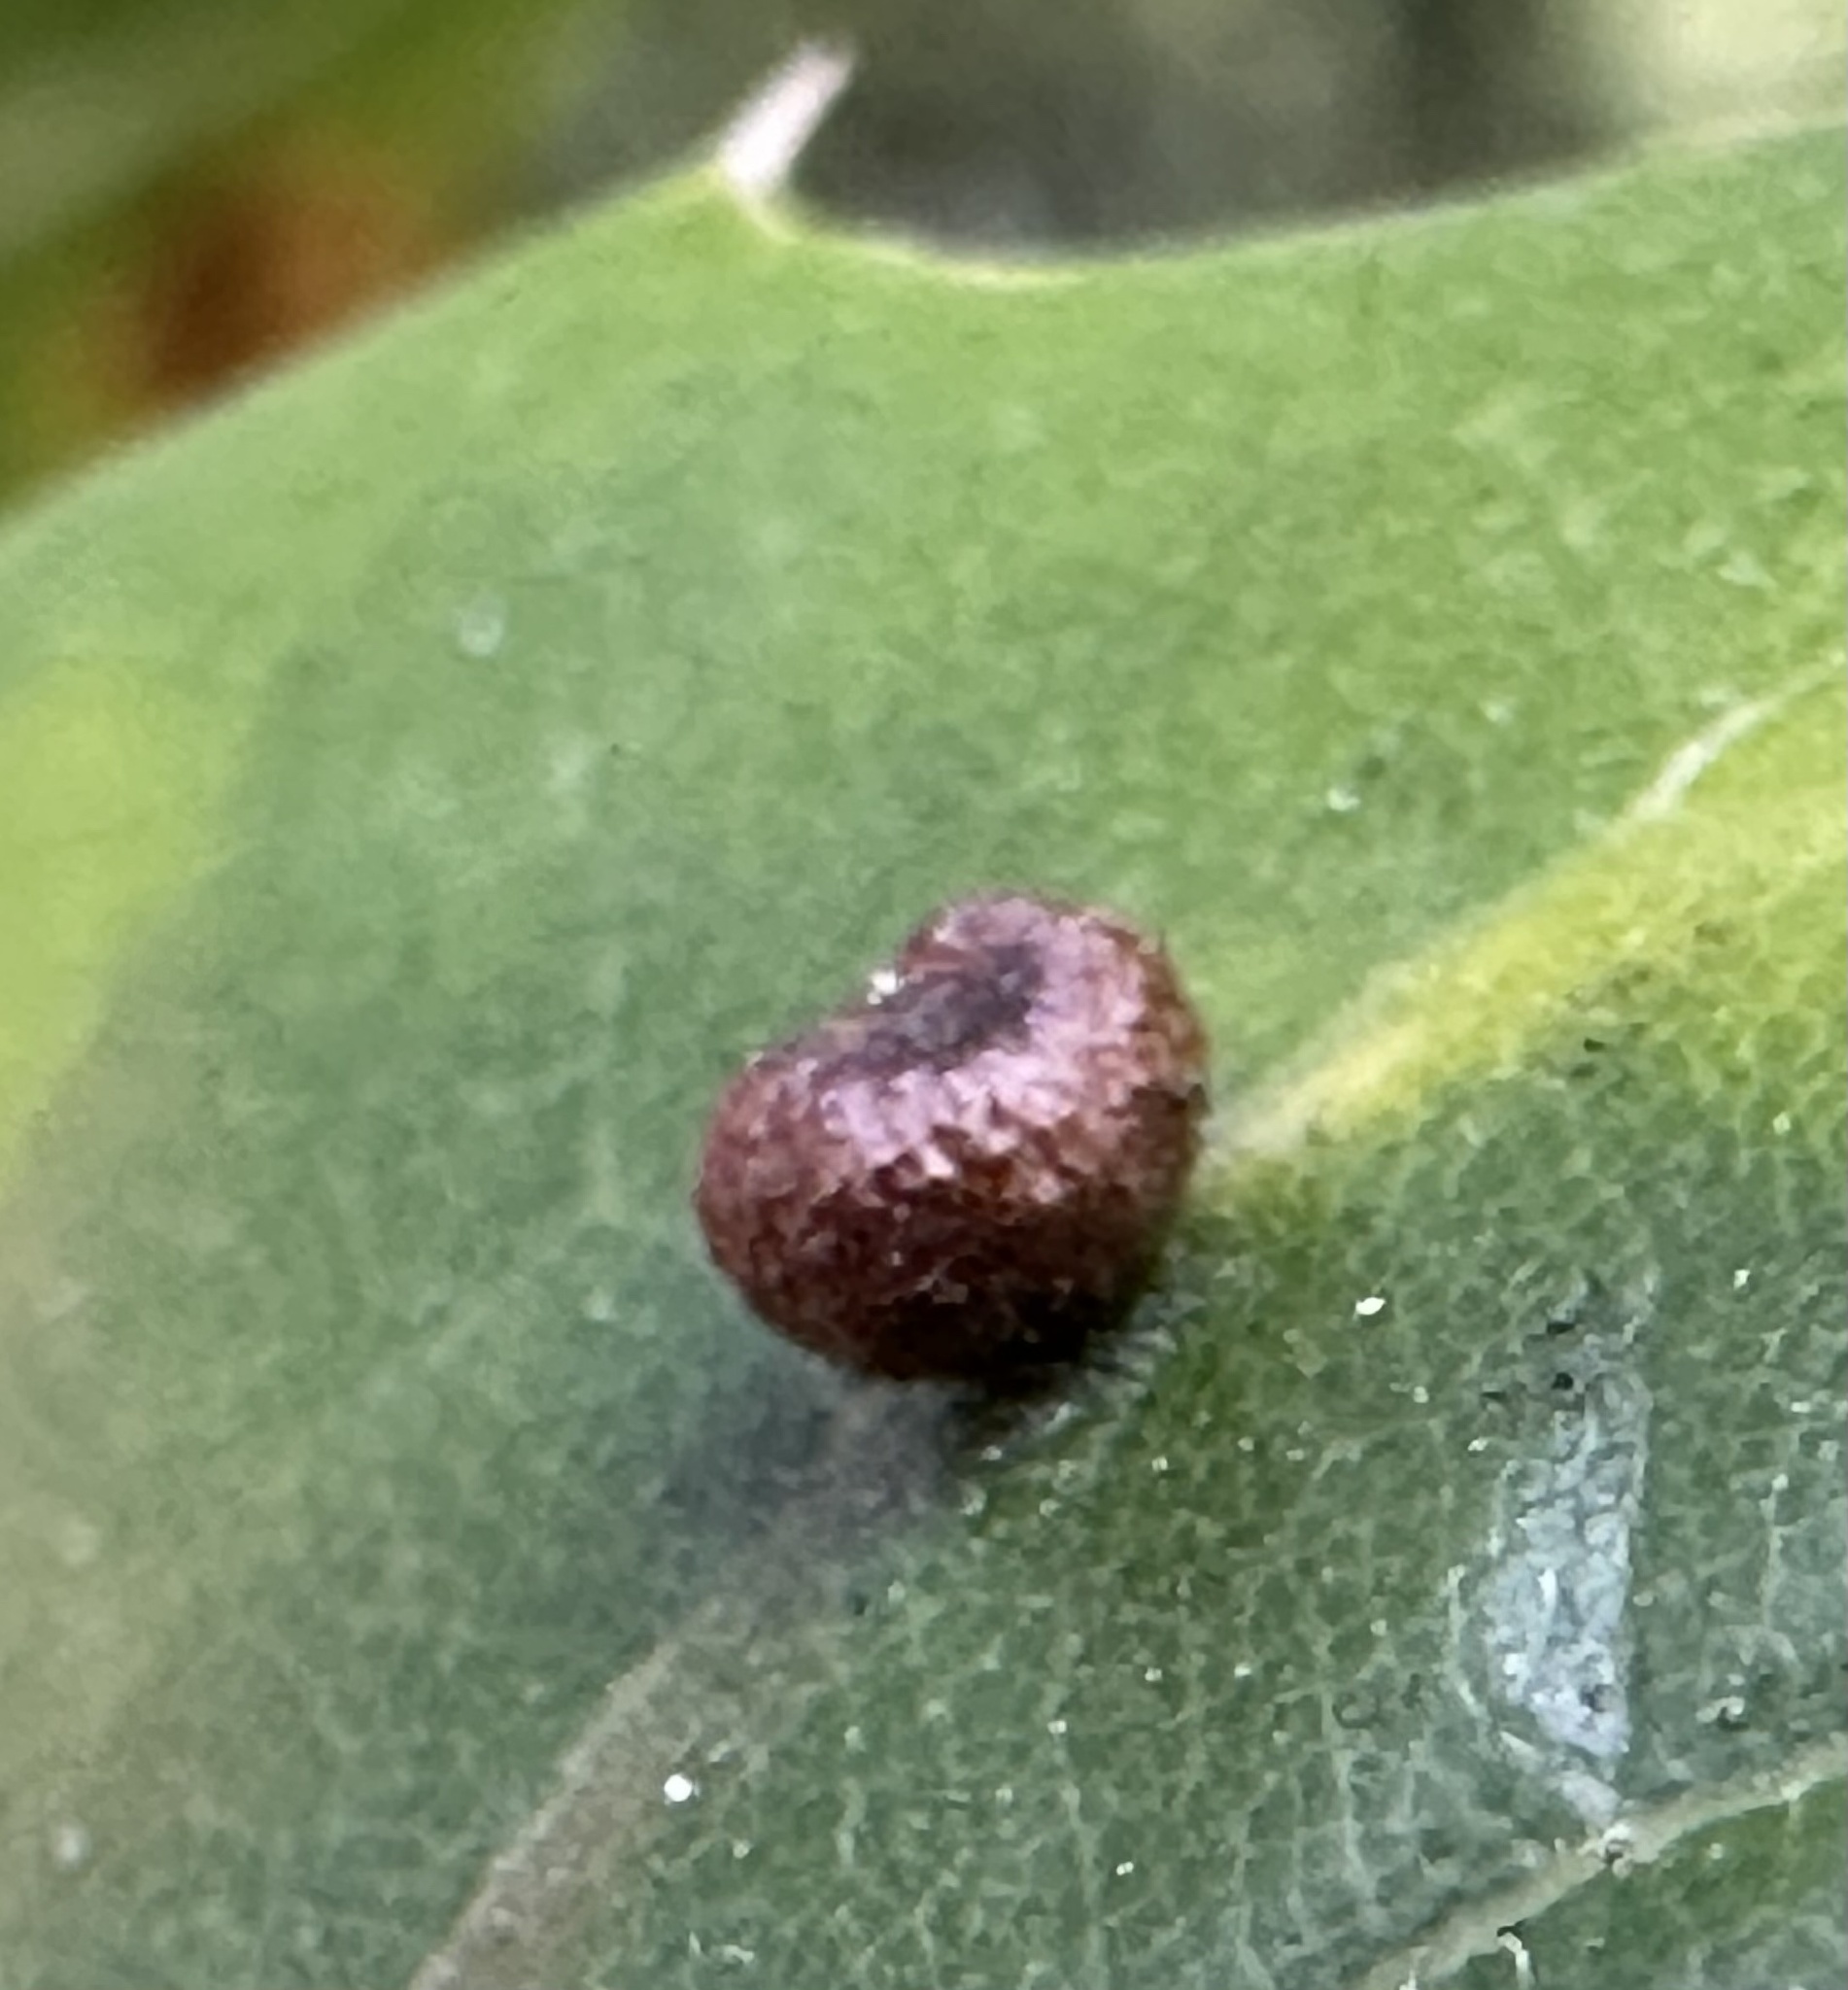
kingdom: Animalia
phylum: Arthropoda
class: Insecta
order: Hymenoptera
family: Cynipidae
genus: Dryocosmus
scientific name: Dryocosmus
